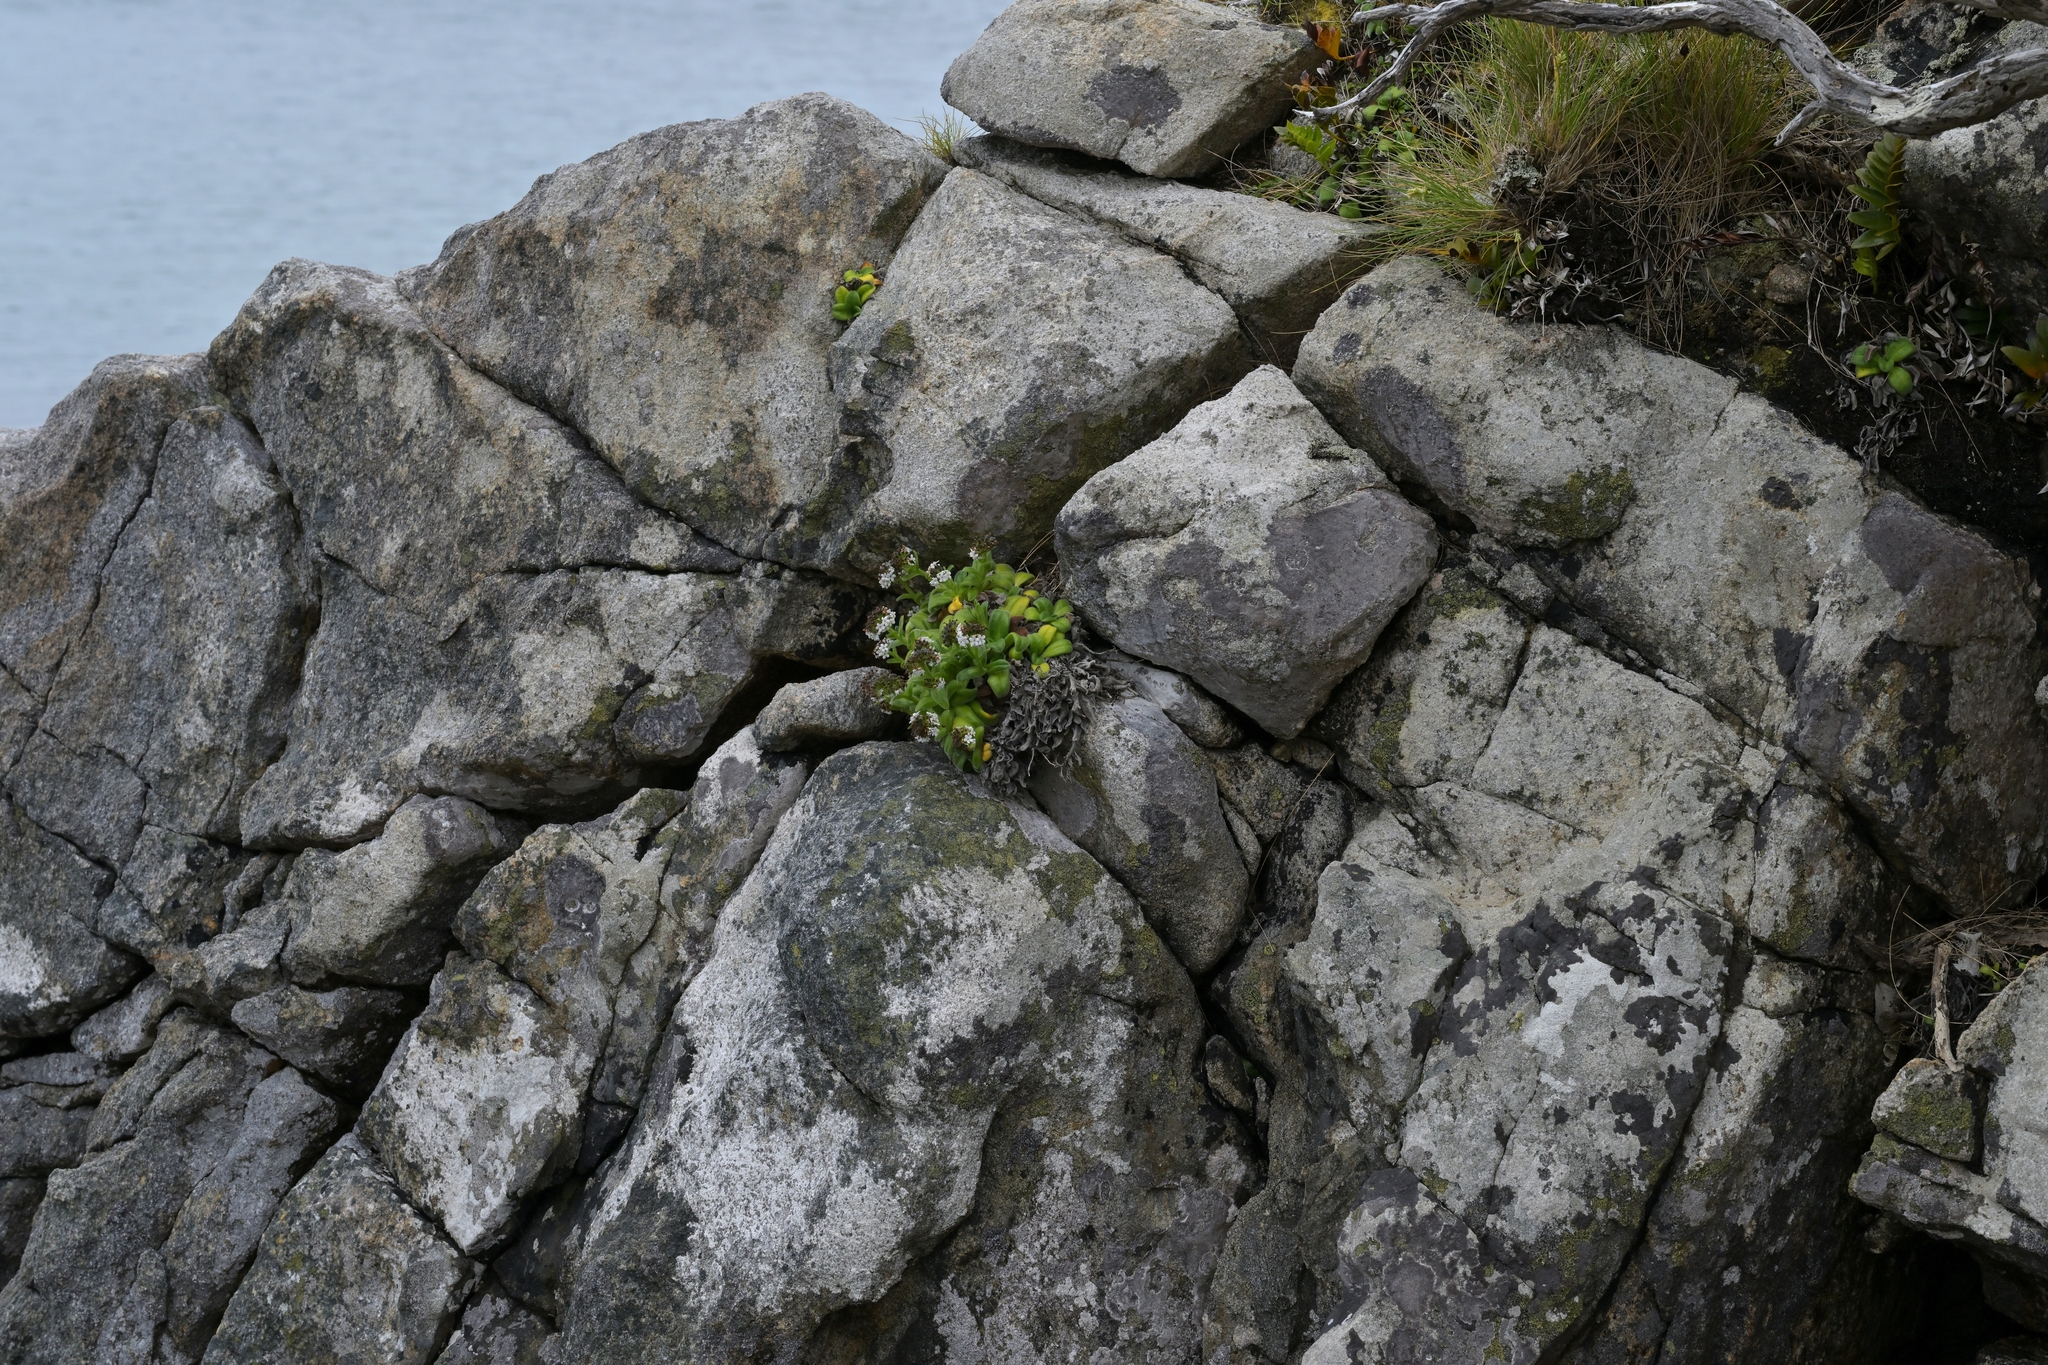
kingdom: Plantae
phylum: Tracheophyta
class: Magnoliopsida
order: Boraginales
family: Boraginaceae
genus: Myosotis
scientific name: Myosotis rakiura
